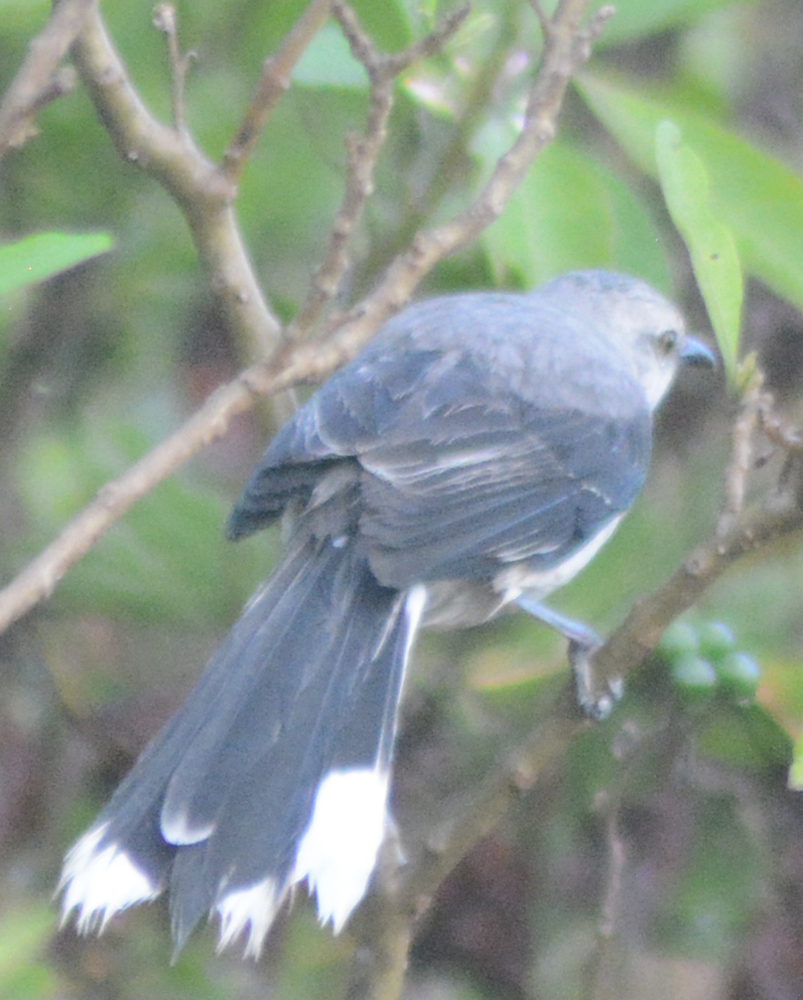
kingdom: Animalia
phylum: Chordata
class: Aves
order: Passeriformes
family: Mimidae
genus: Mimus
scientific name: Mimus gilvus
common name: Tropical mockingbird
